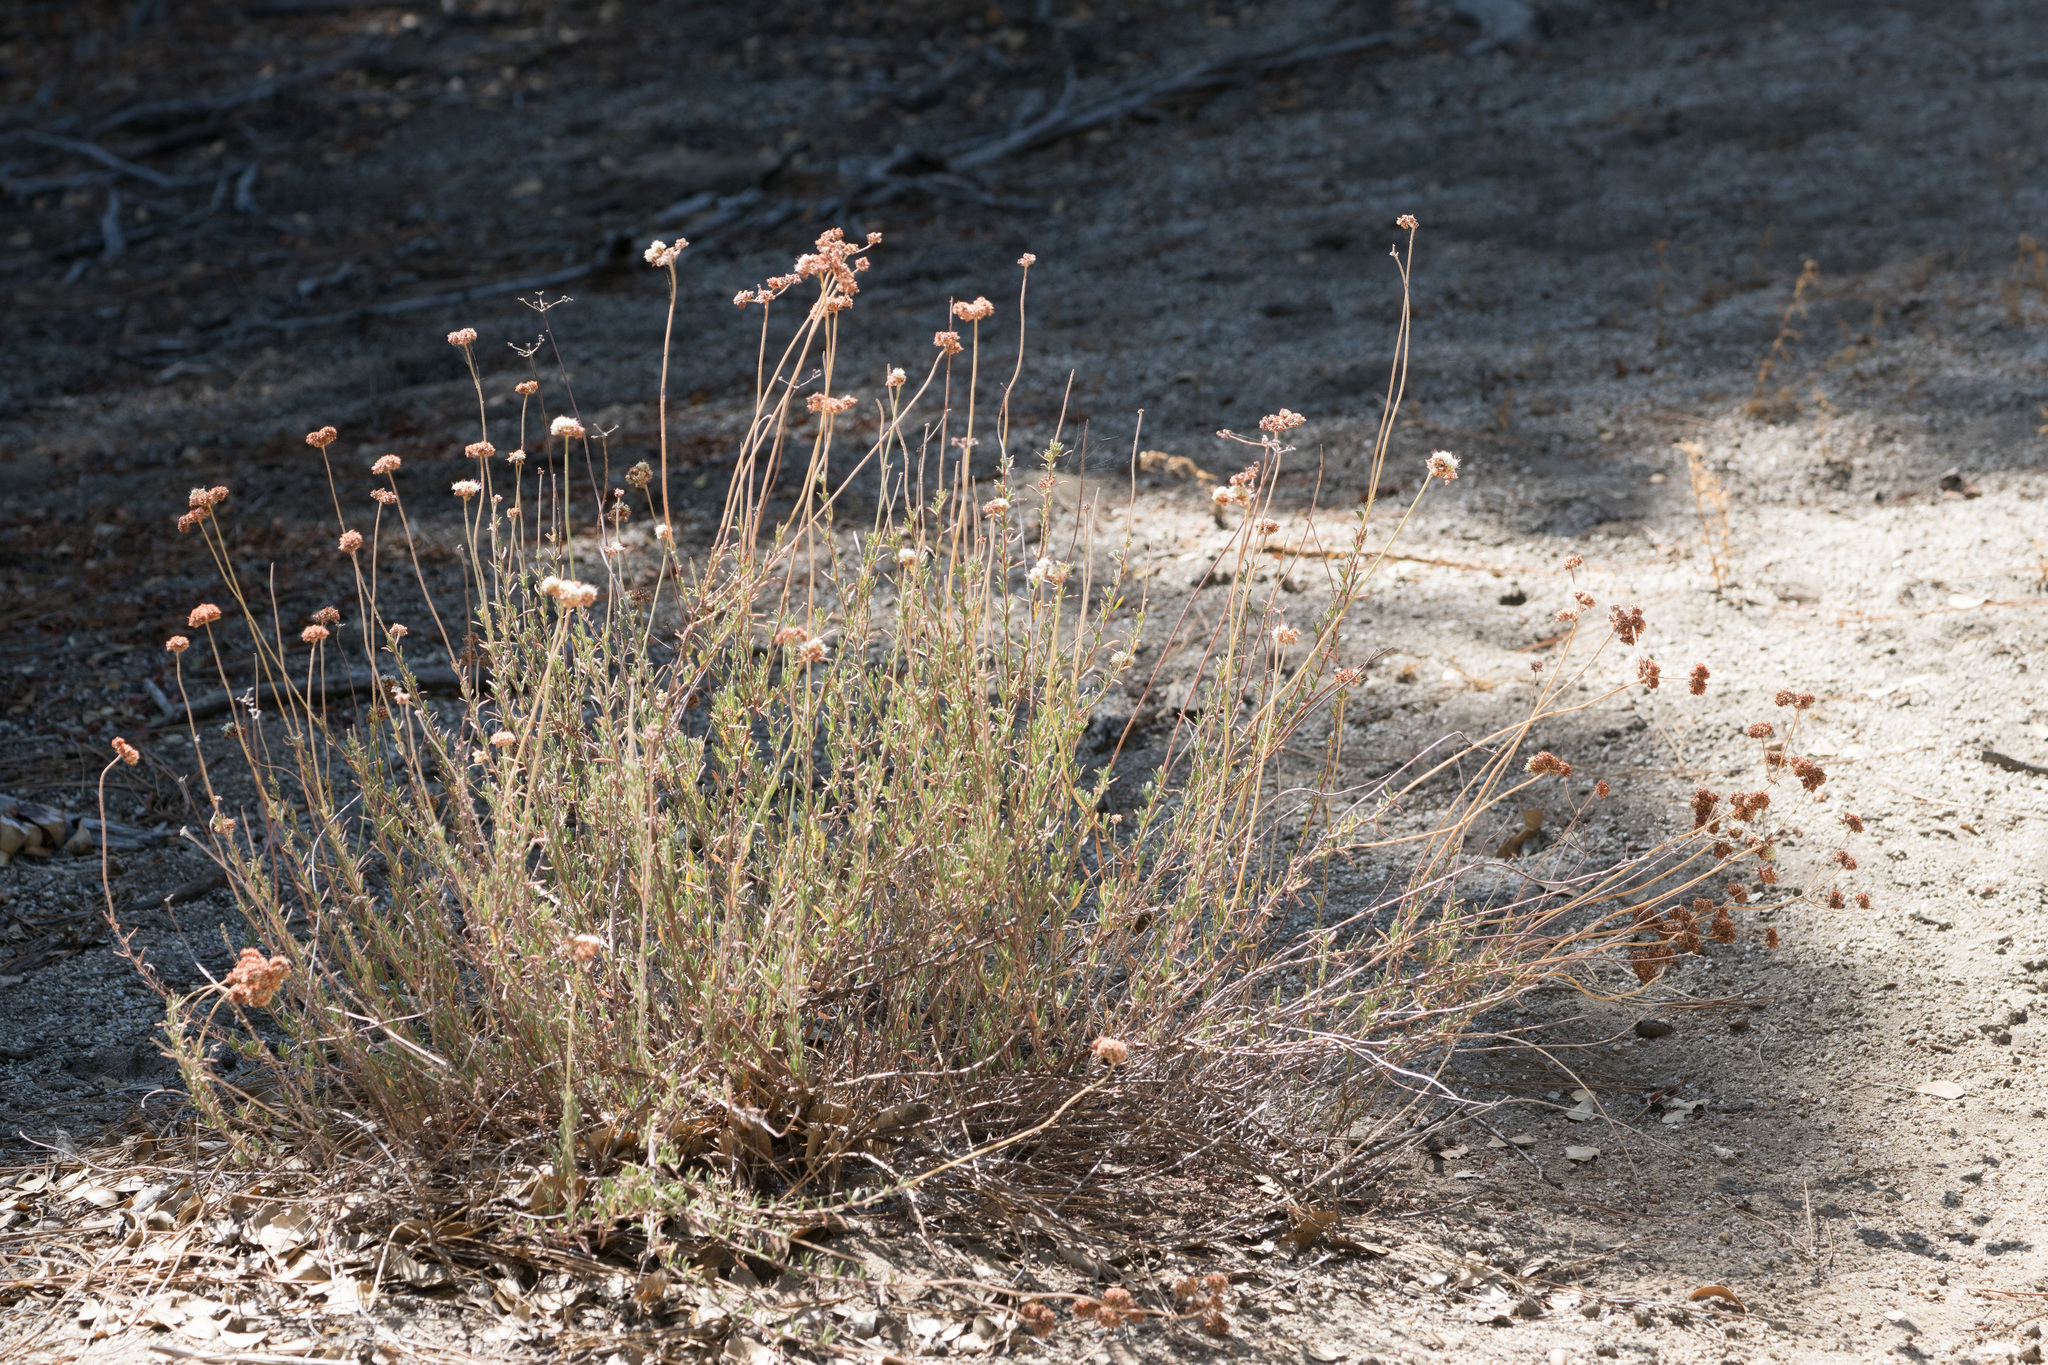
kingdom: Plantae
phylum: Tracheophyta
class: Magnoliopsida
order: Caryophyllales
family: Polygonaceae
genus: Eriogonum
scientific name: Eriogonum fasciculatum
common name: California wild buckwheat
